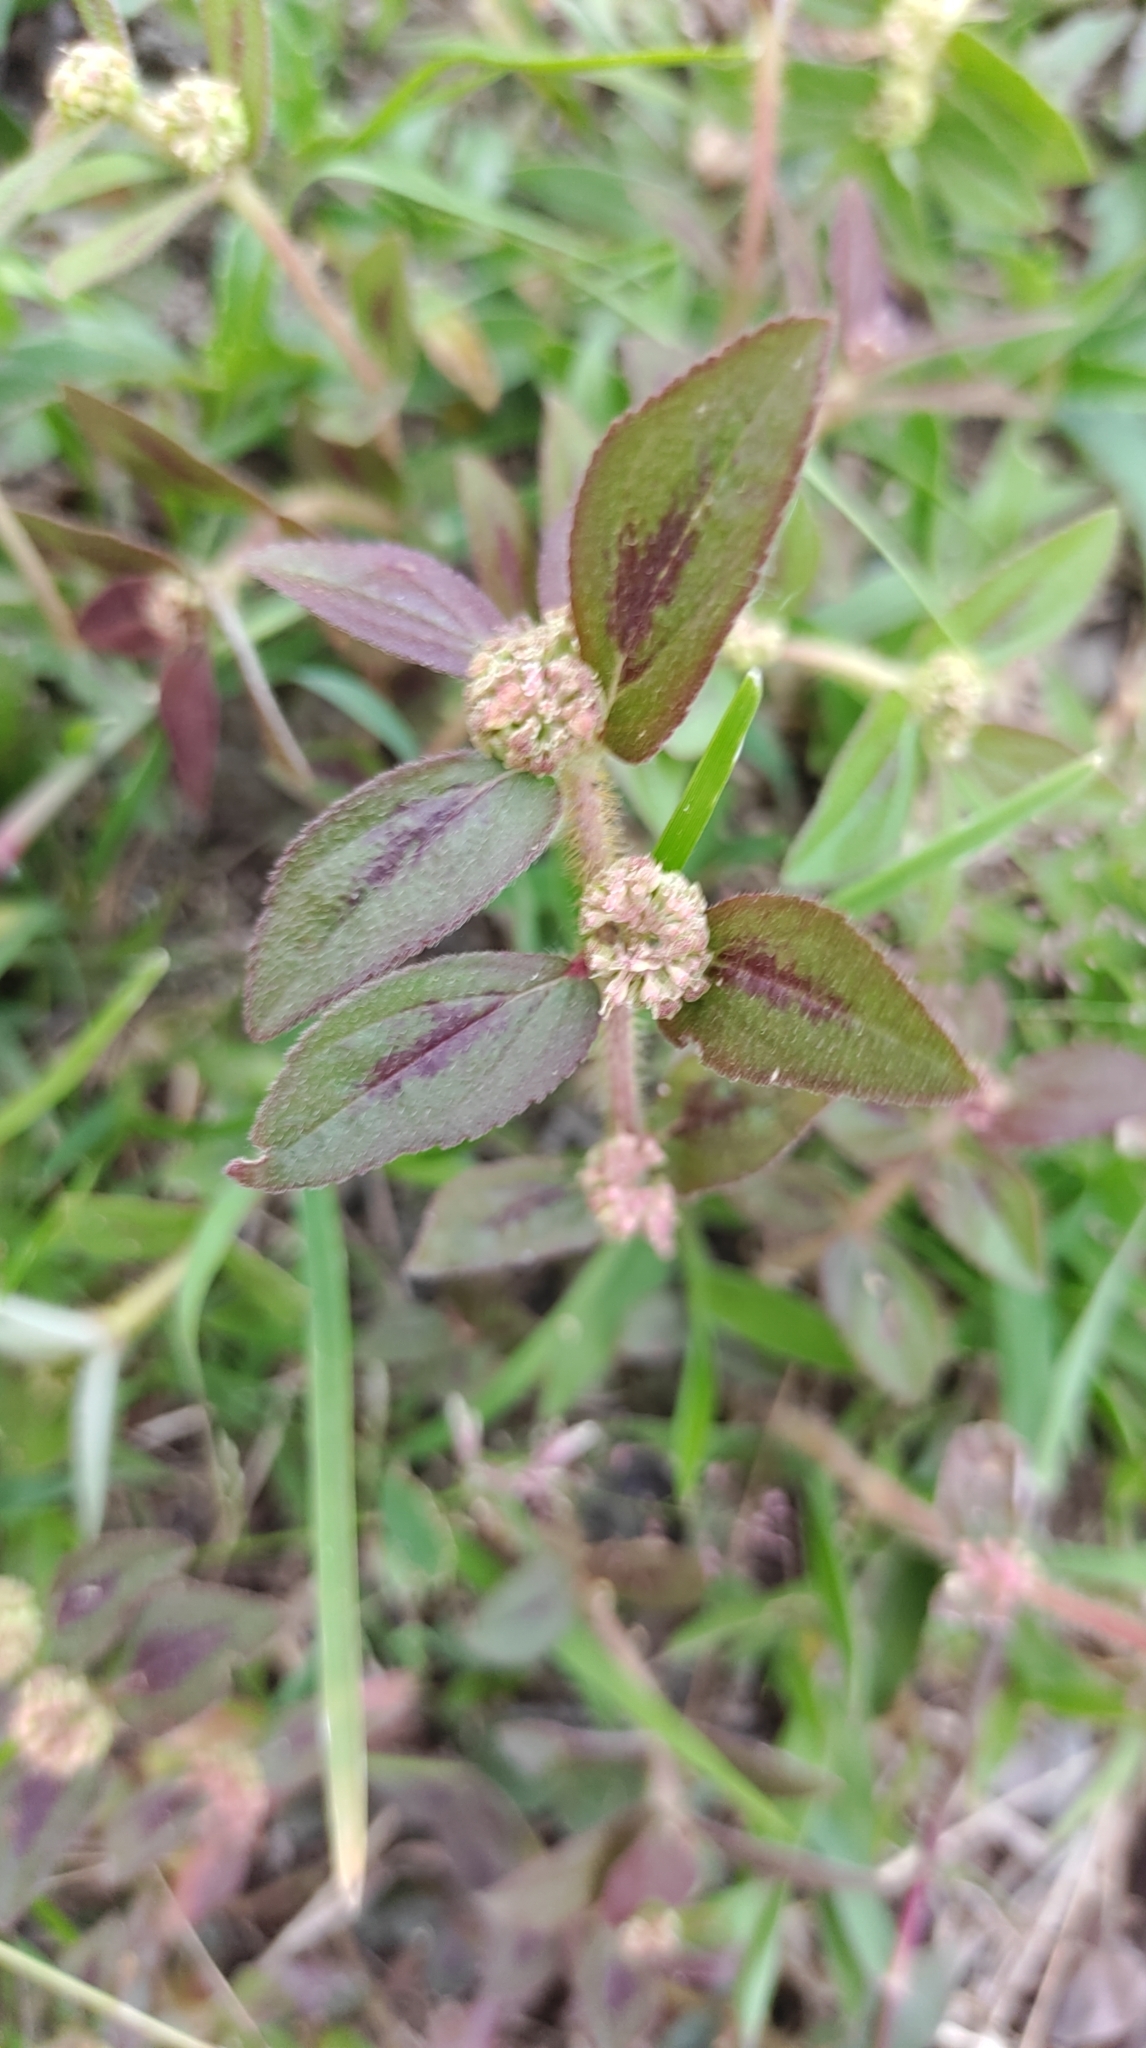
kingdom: Plantae
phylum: Tracheophyta
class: Magnoliopsida
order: Malpighiales
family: Euphorbiaceae
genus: Euphorbia
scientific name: Euphorbia hirta
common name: Pillpod sandmat
